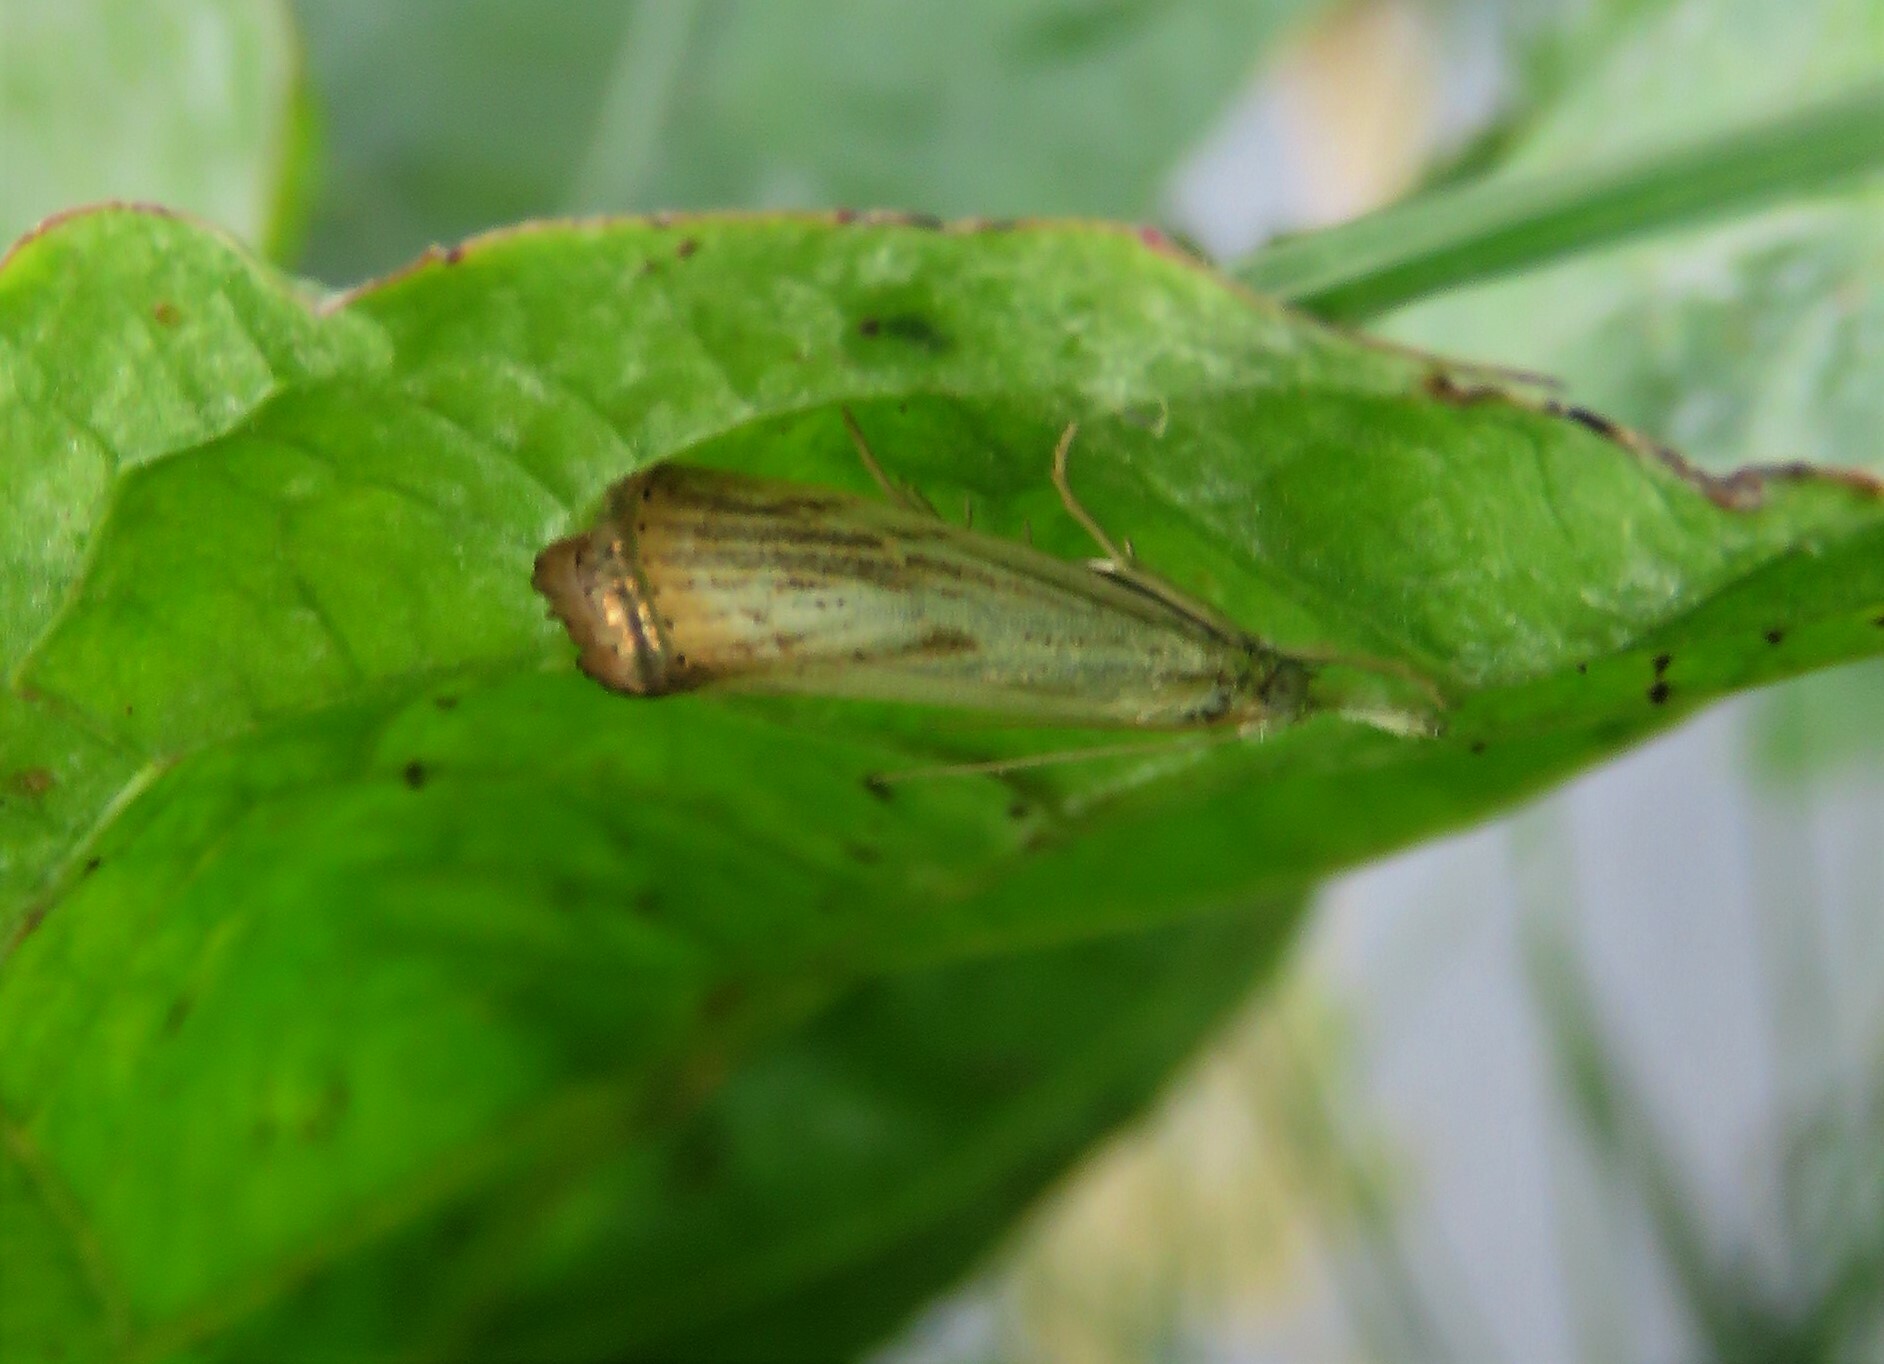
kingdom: Animalia
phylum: Arthropoda
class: Insecta
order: Lepidoptera
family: Crambidae
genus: Agriphila
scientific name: Agriphila ruricolellus
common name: Lesser vagabond sod webworm
